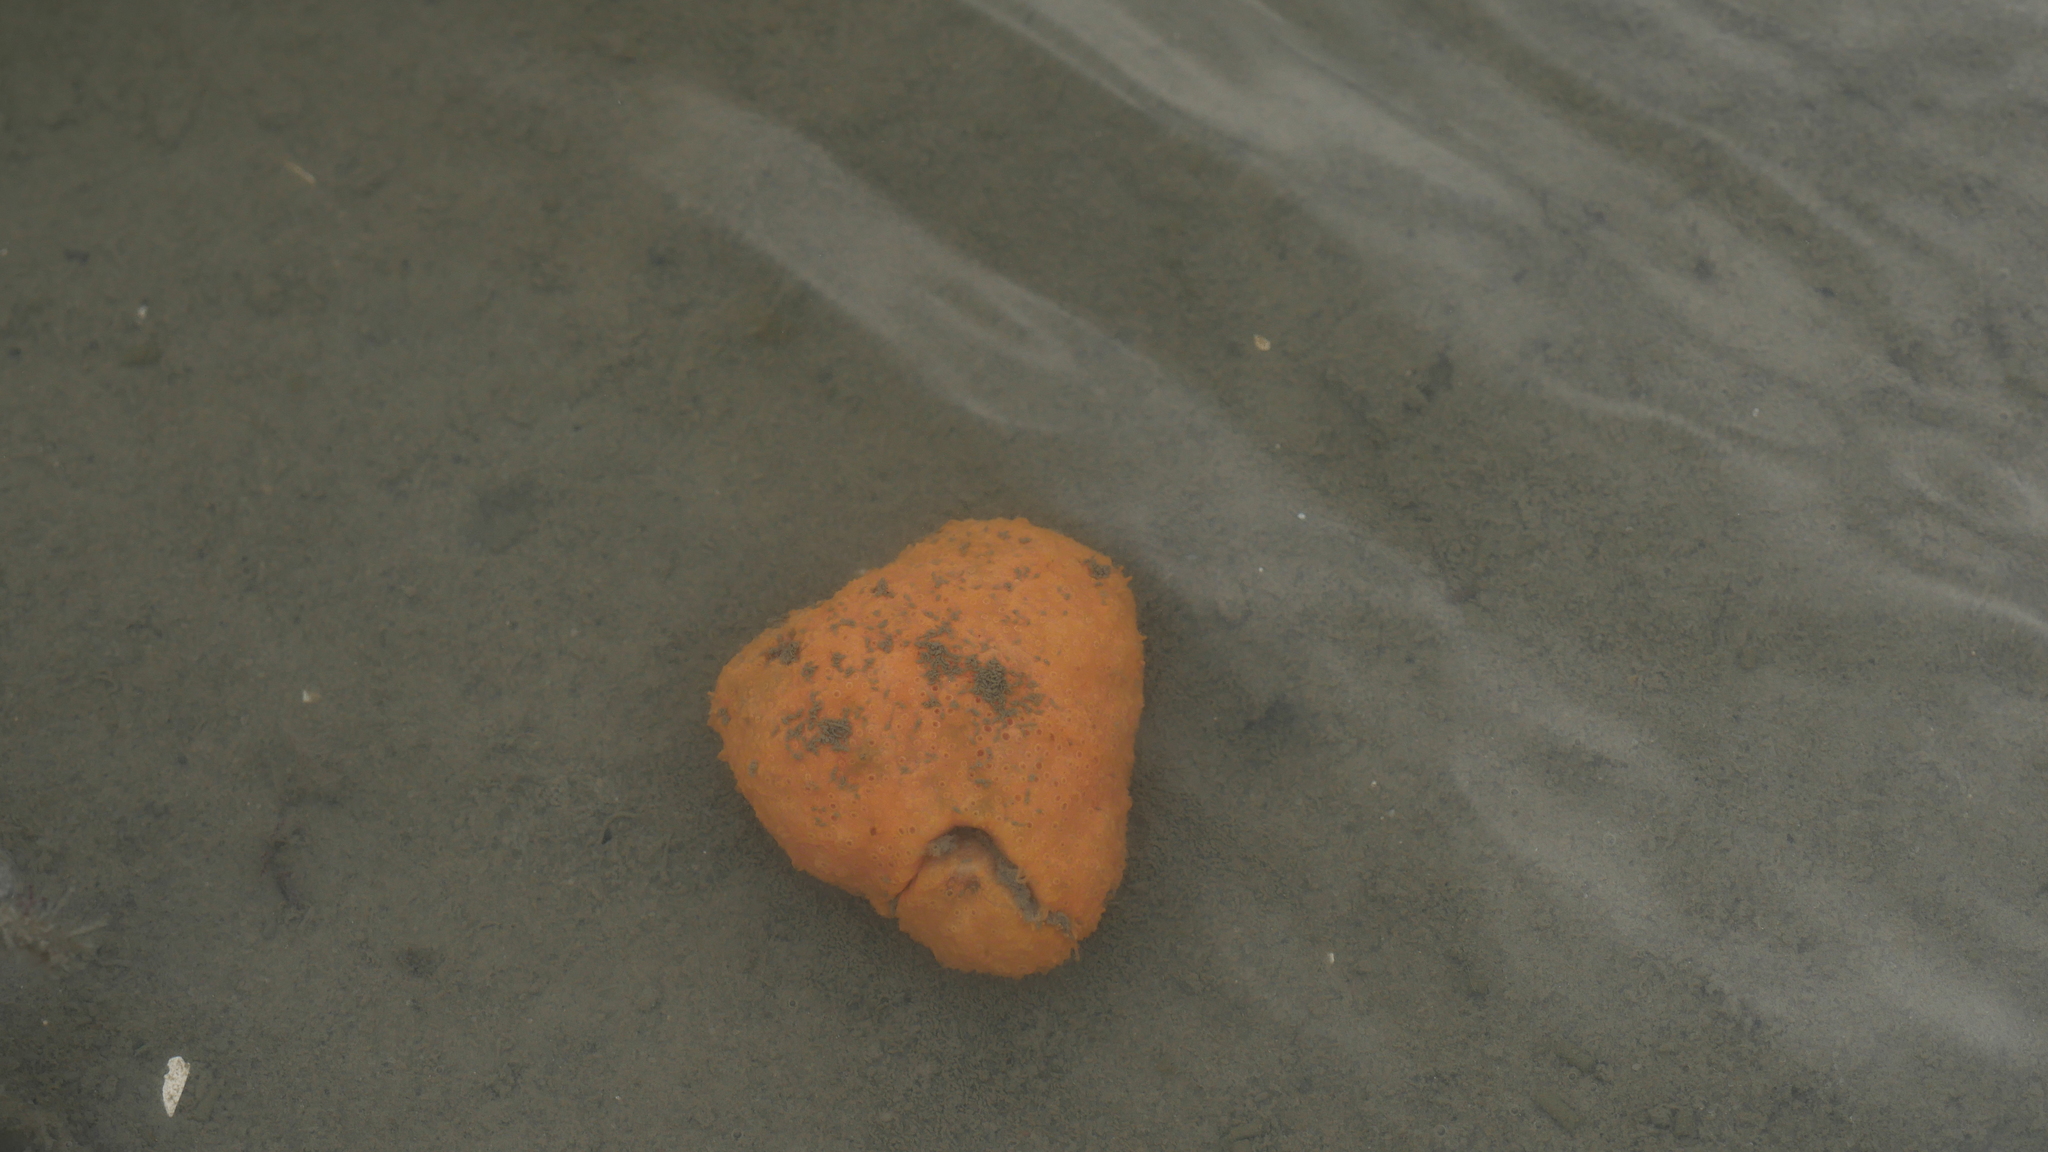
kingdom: Animalia
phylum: Chordata
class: Ascidiacea
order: Aplousobranchia
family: Polyclinidae
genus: Aplidium
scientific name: Aplidium stellatum
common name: Atlantic sea pork
